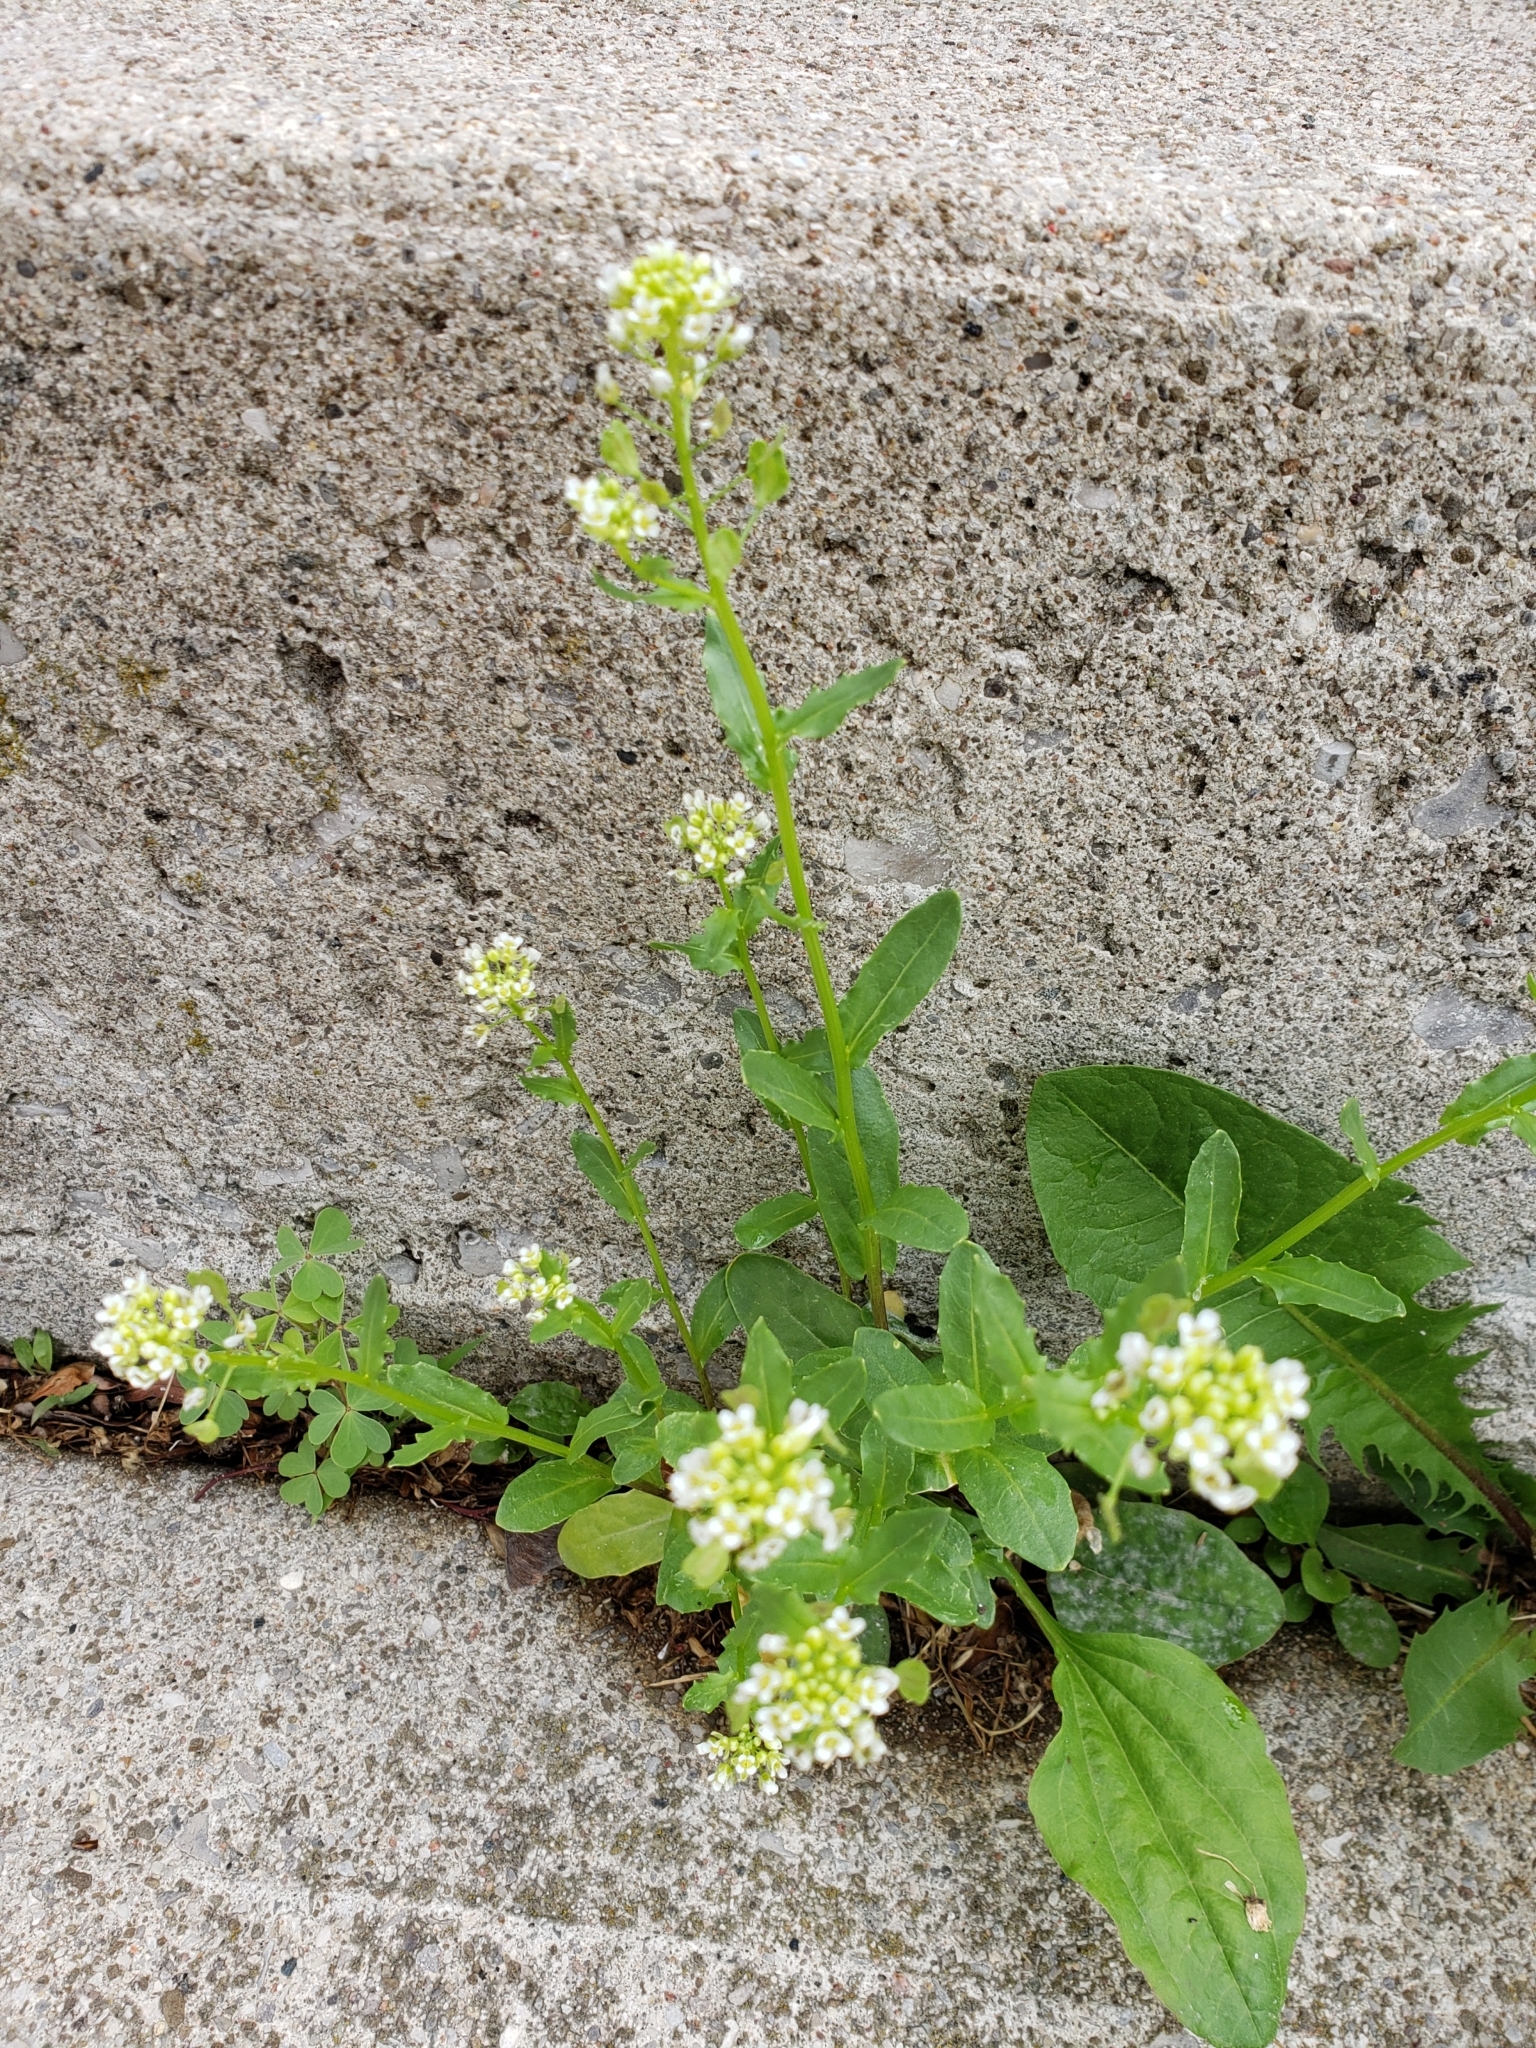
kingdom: Plantae
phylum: Tracheophyta
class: Magnoliopsida
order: Brassicales
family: Brassicaceae
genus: Berteroa
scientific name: Berteroa incana
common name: Hoary alison
